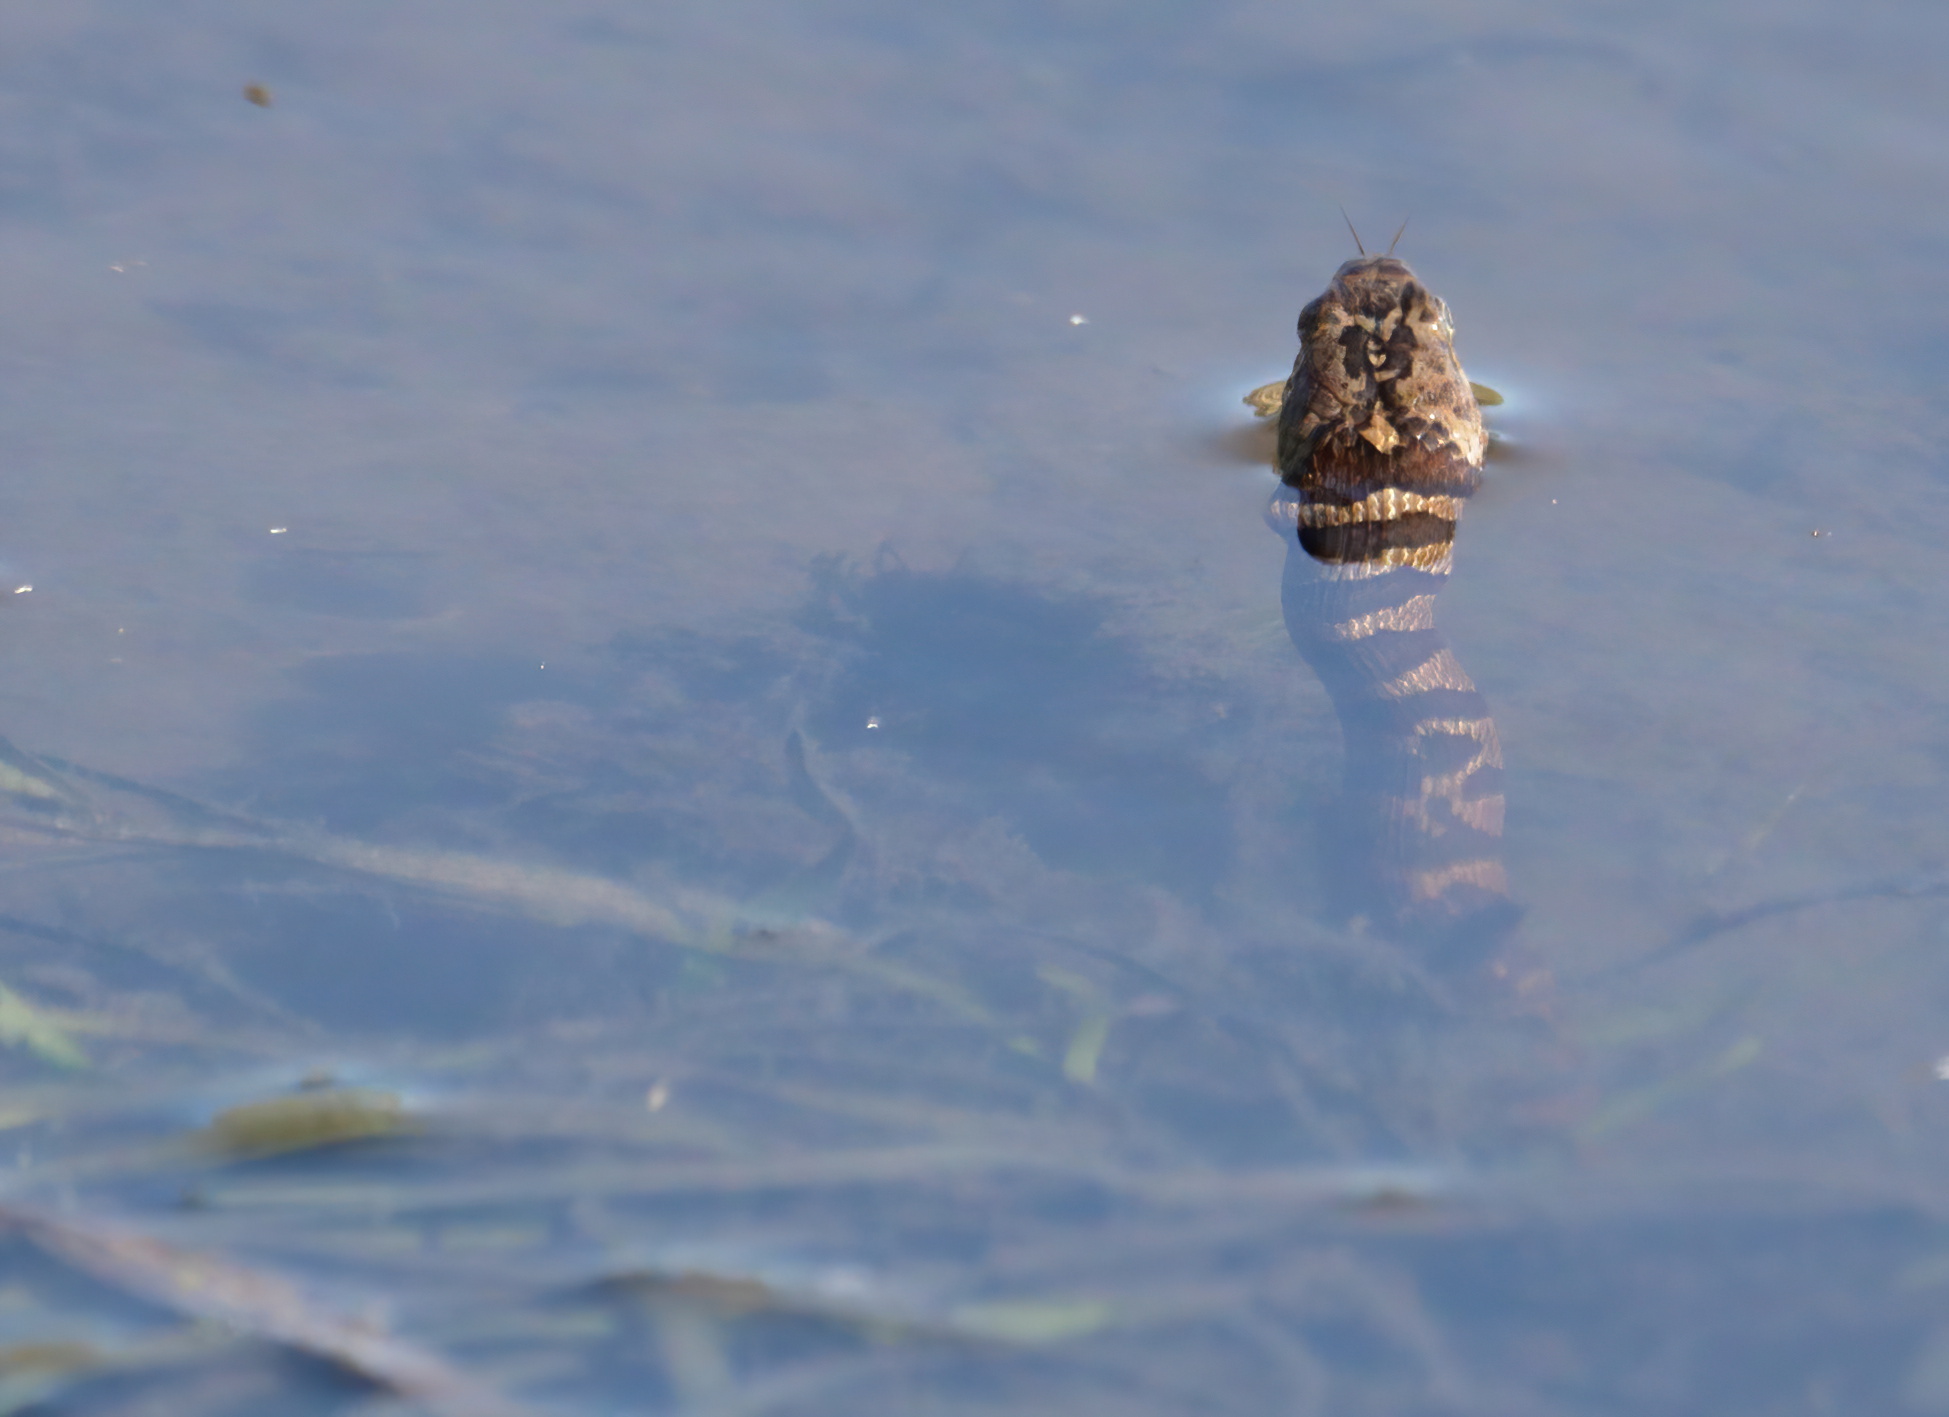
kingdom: Animalia
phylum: Chordata
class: Squamata
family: Colubridae
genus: Nerodia
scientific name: Nerodia sipedon
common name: Northern water snake
